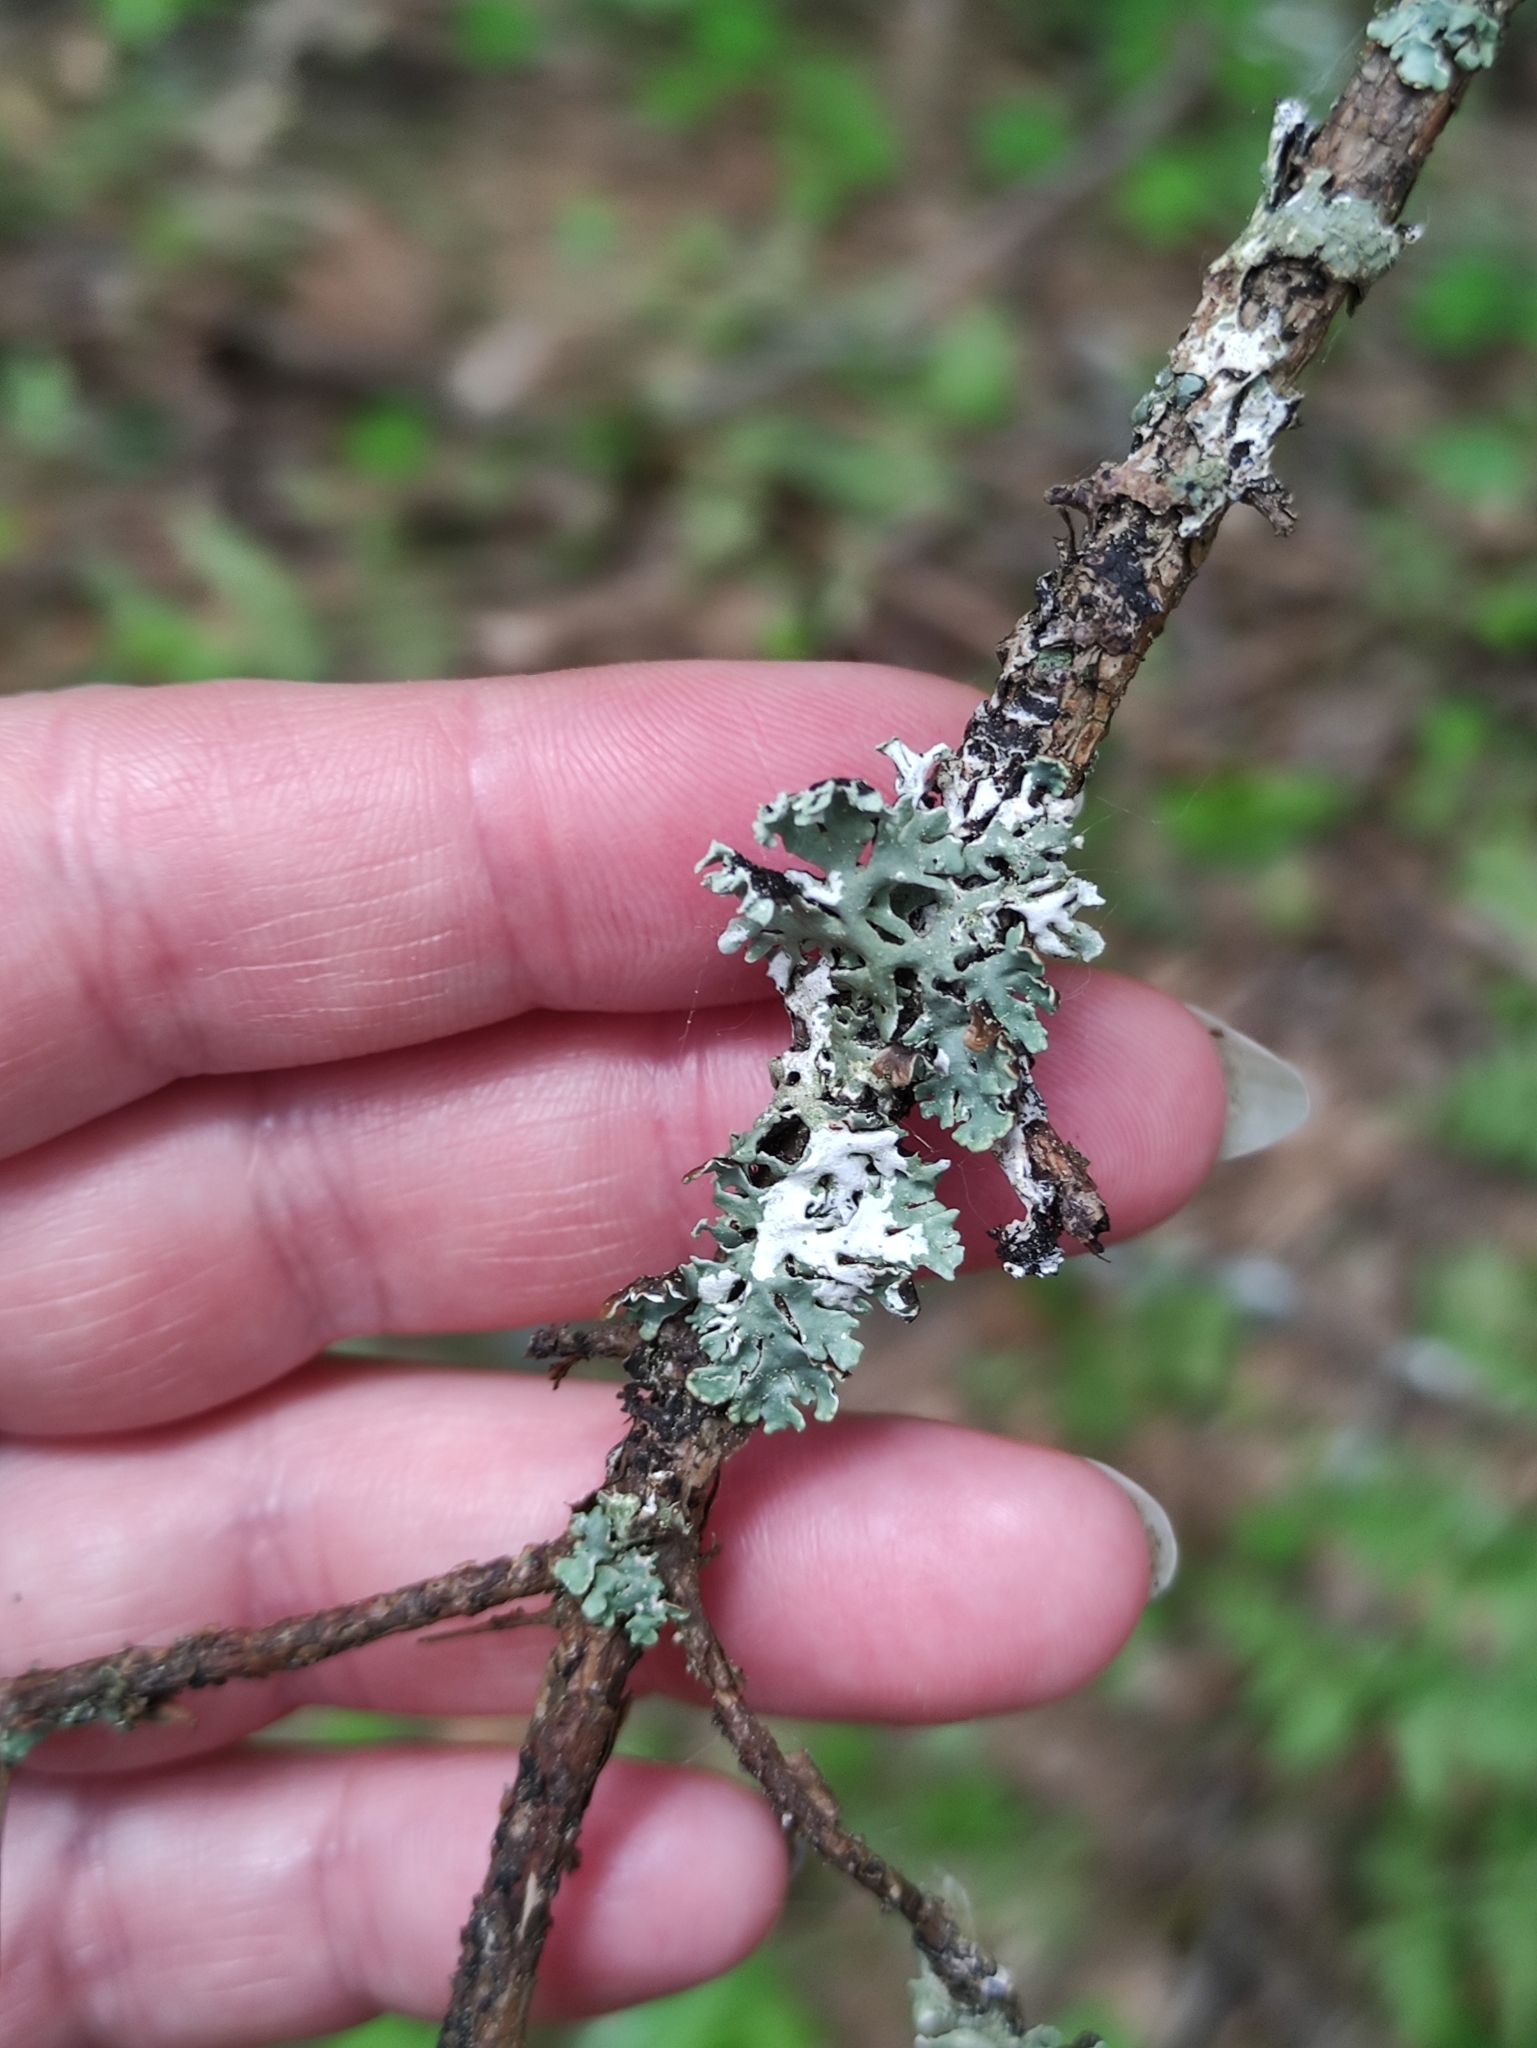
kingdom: Fungi
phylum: Ascomycota
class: Lecanoromycetes
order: Lecanorales
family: Parmeliaceae
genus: Hypogymnia
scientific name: Hypogymnia physodes
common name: Dark crottle
